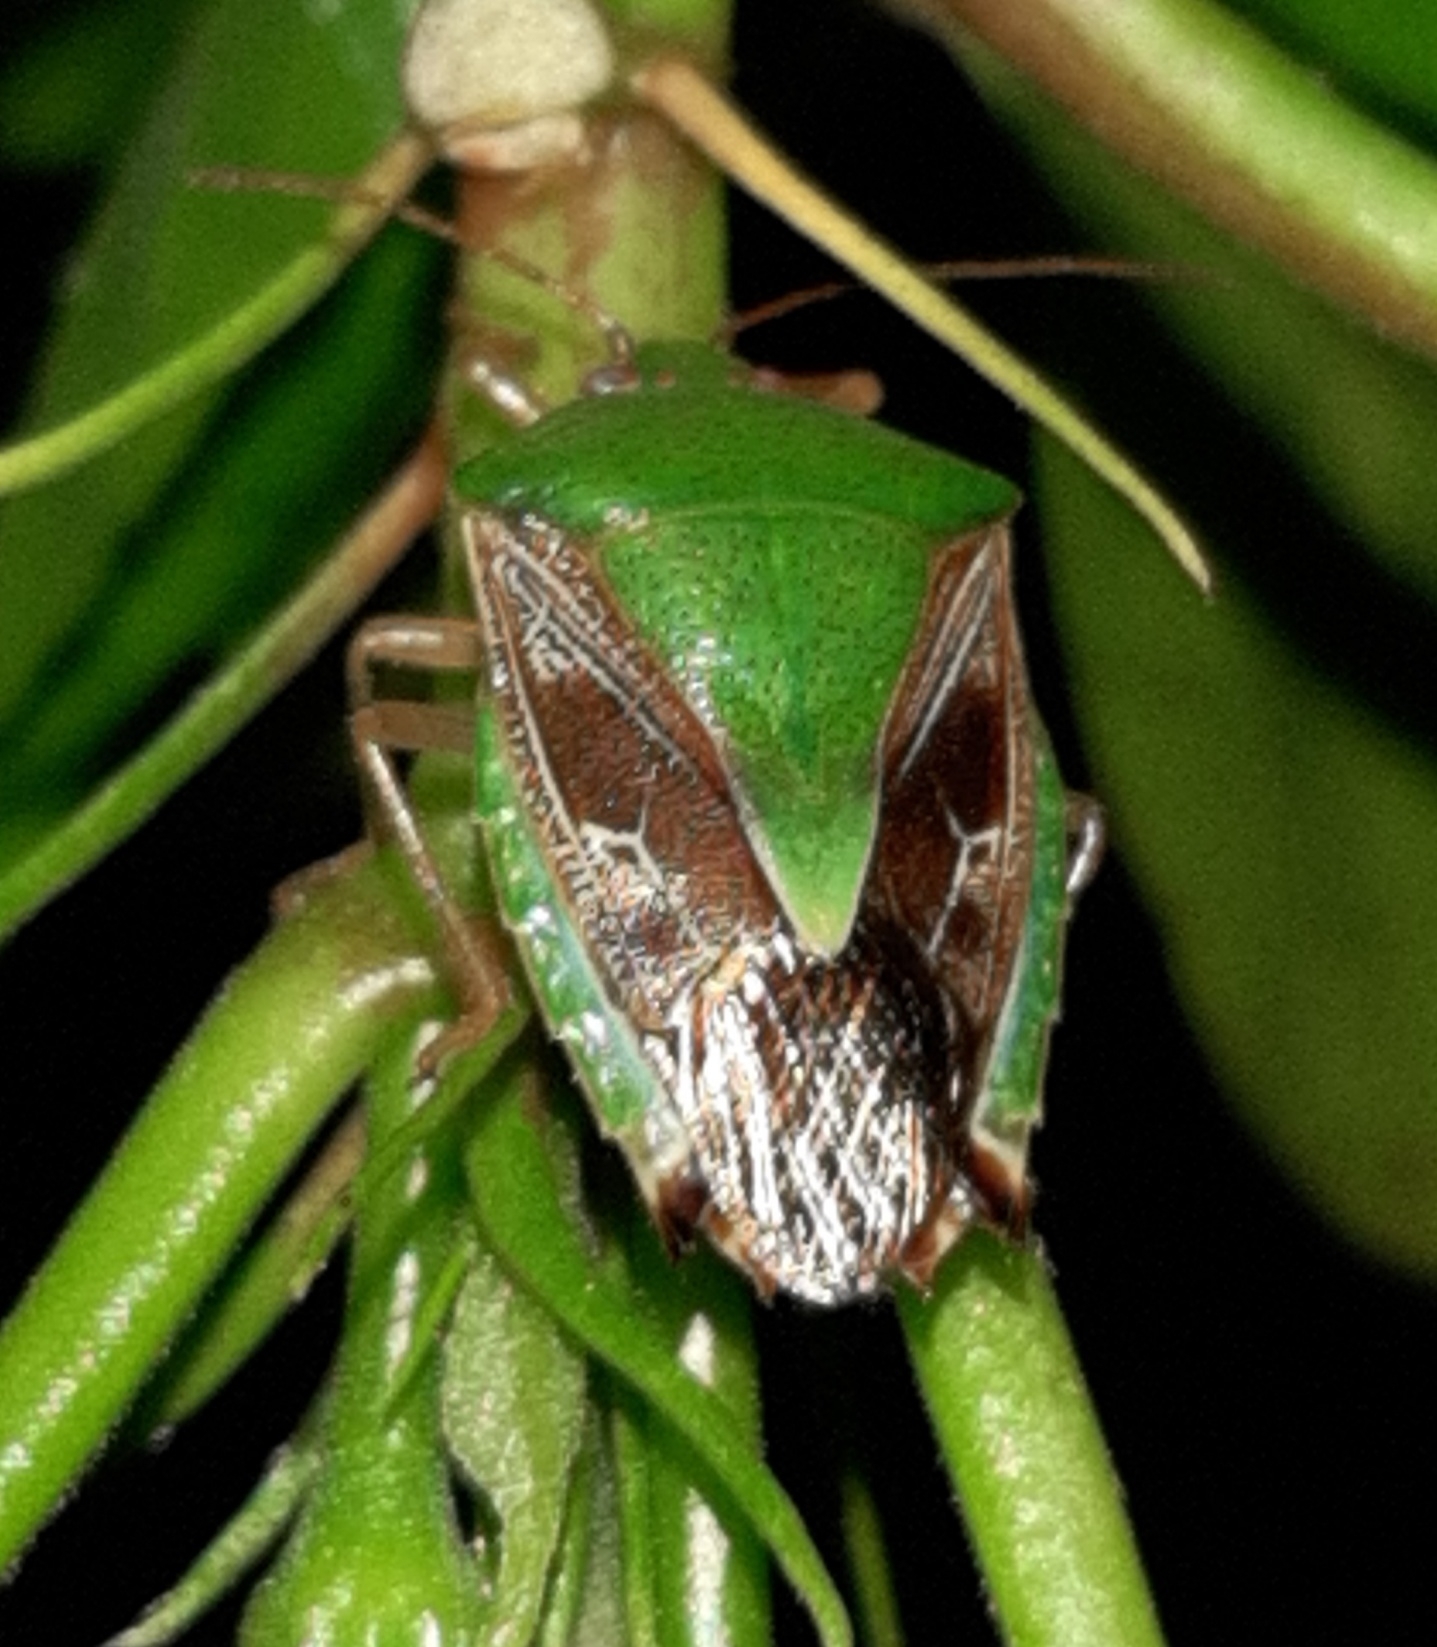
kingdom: Animalia
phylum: Arthropoda
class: Insecta
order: Hemiptera
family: Pentatomidae
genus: Edessa
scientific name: Edessa meditabunda
